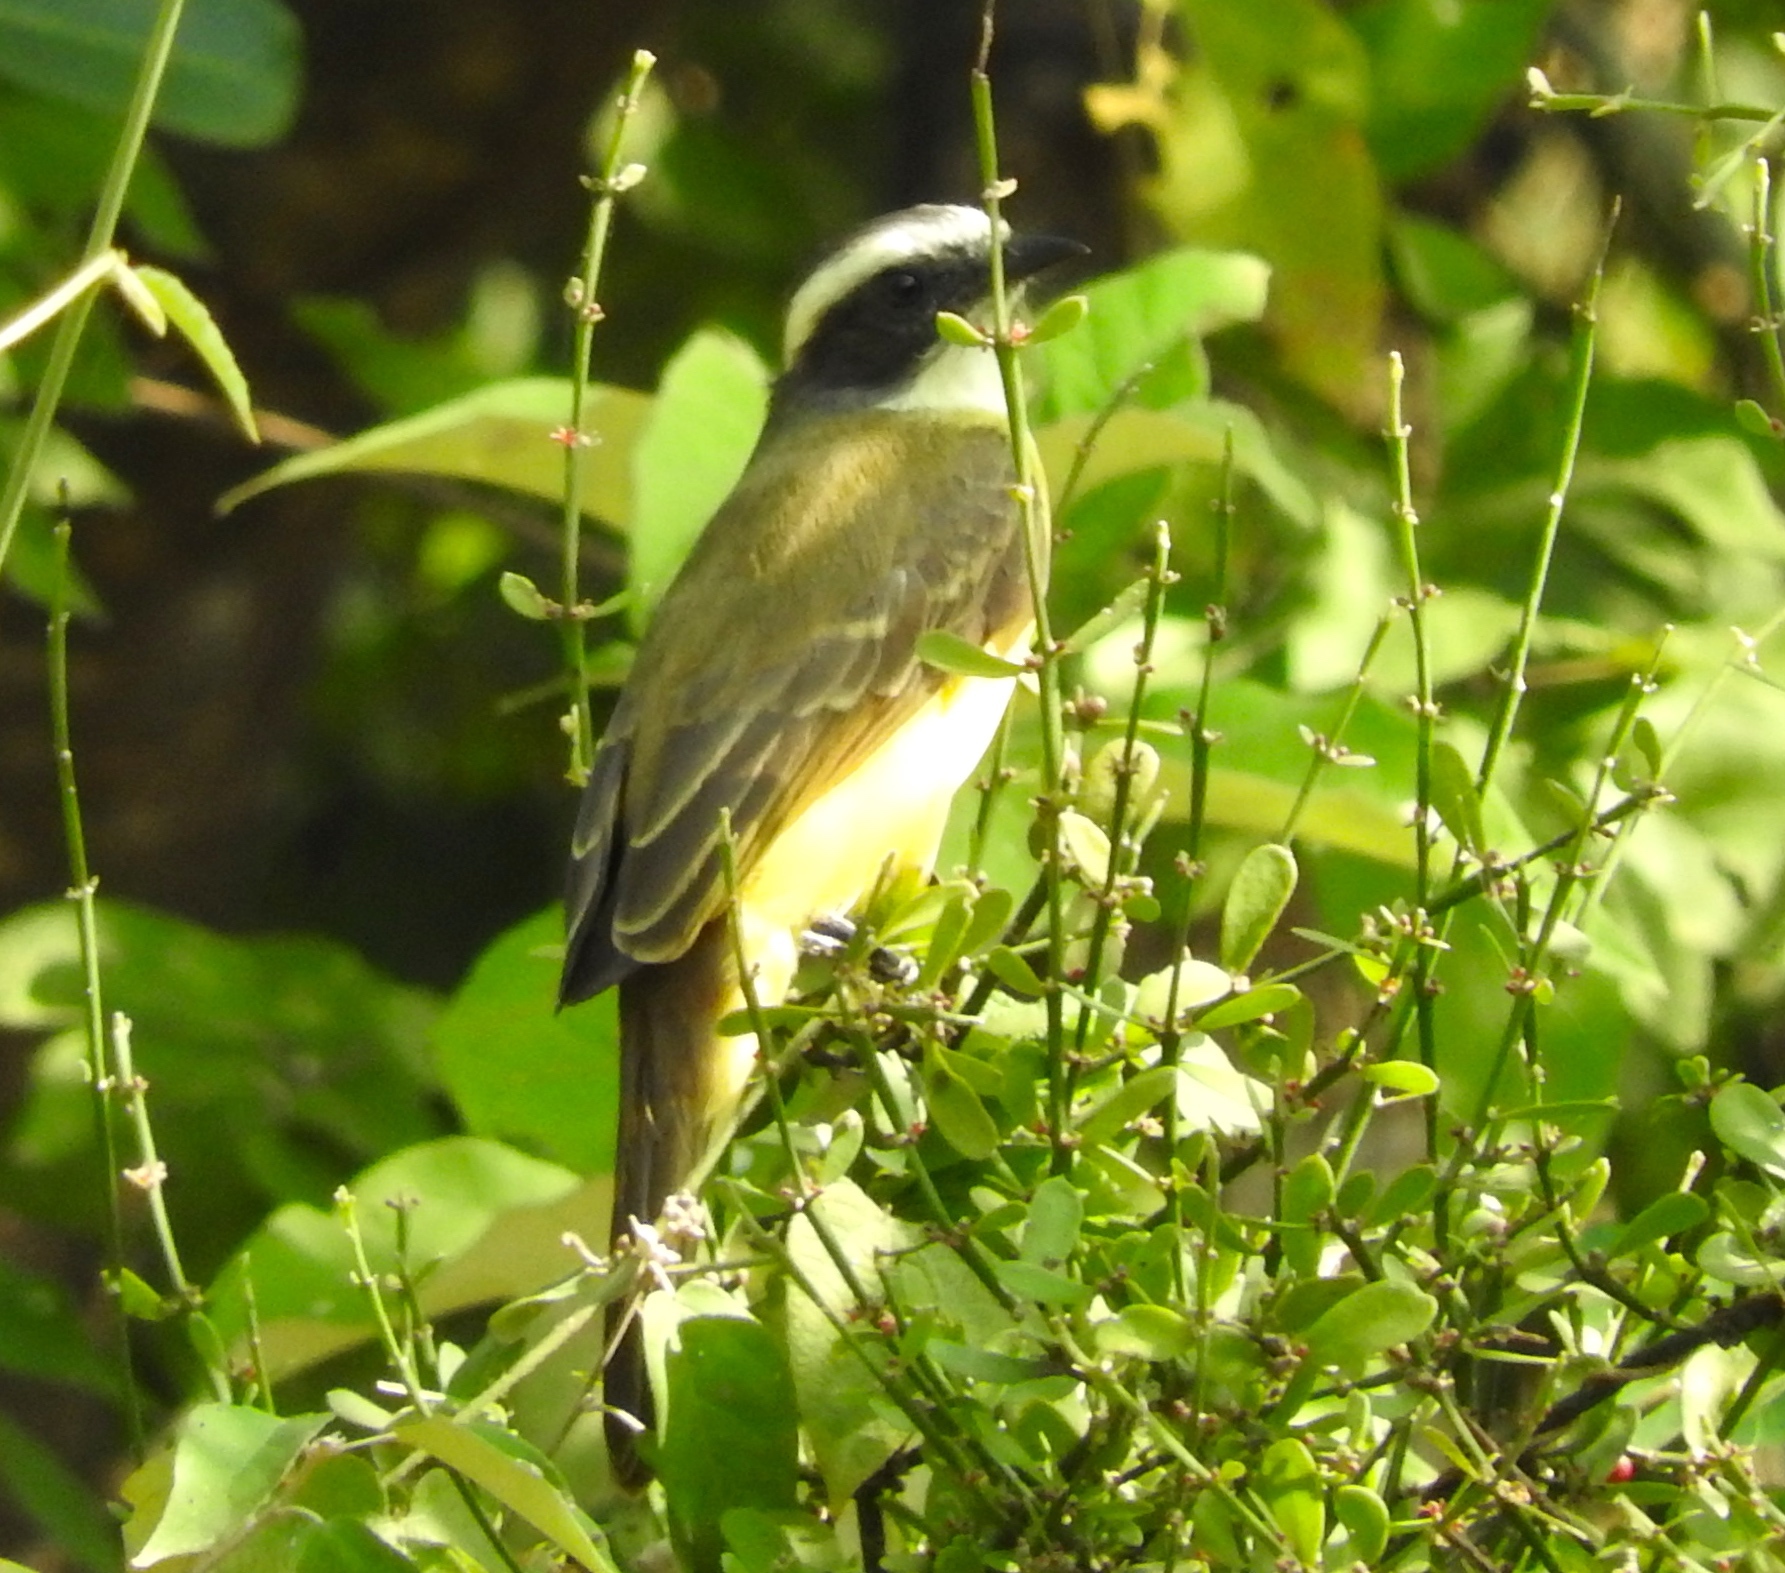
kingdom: Animalia
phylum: Chordata
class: Aves
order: Passeriformes
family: Tyrannidae
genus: Myiozetetes
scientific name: Myiozetetes similis
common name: Social flycatcher
